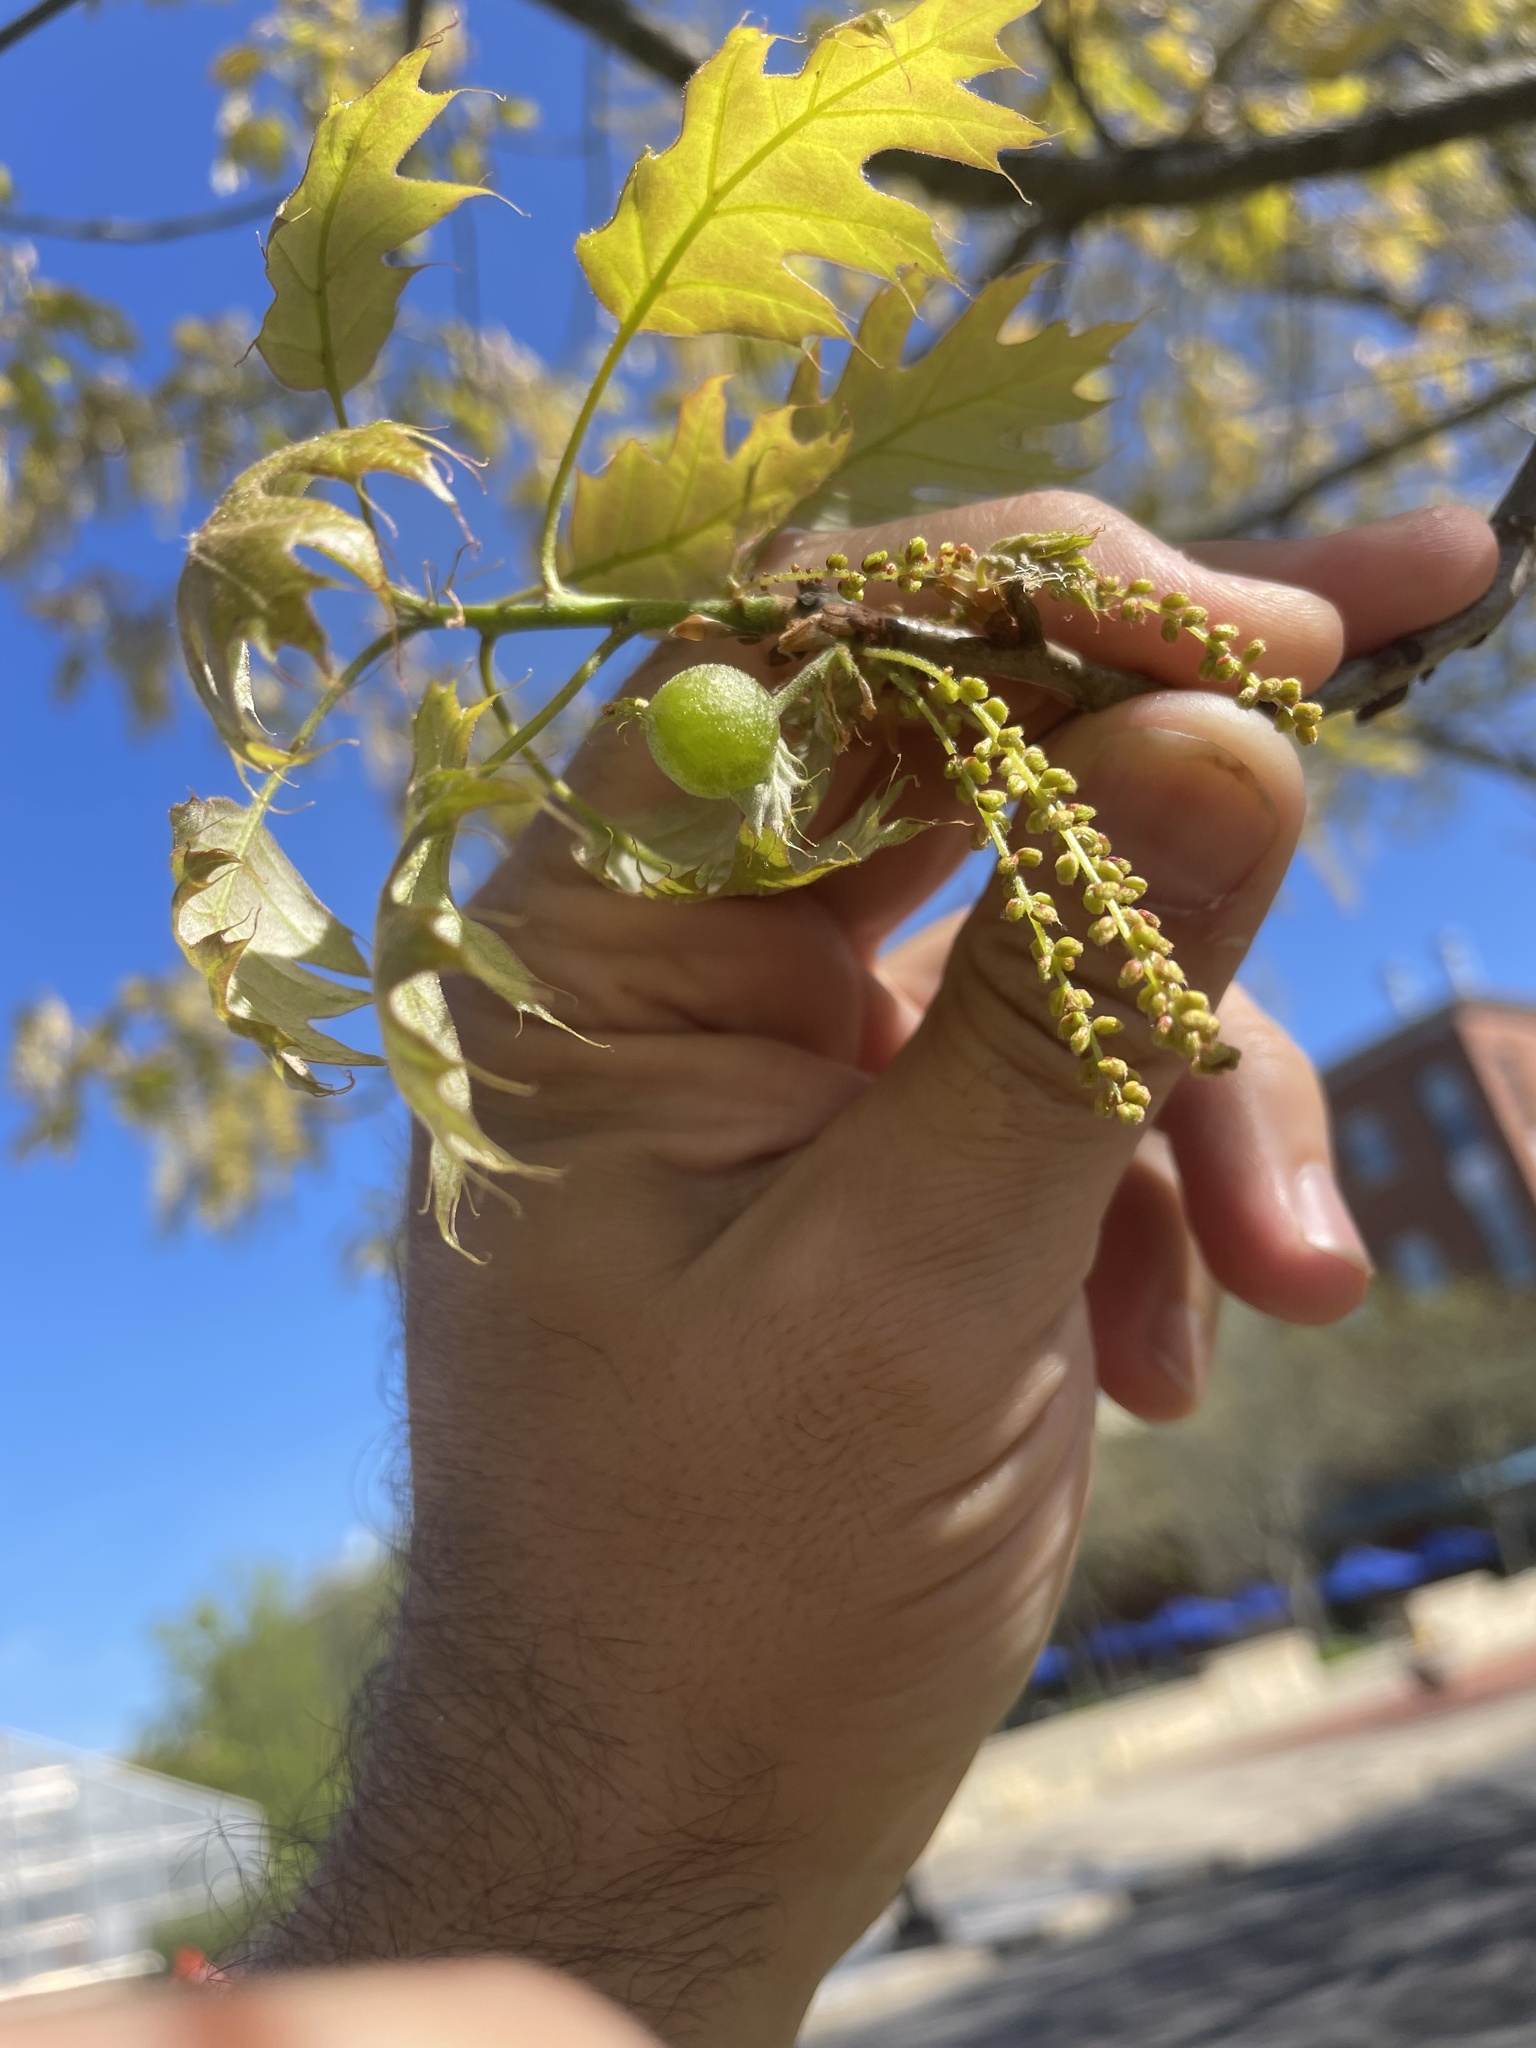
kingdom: Animalia
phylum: Arthropoda
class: Insecta
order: Hymenoptera
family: Cynipidae
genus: Dryocosmus
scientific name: Dryocosmus quercuspalustris
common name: Succulent oak gall wasp
